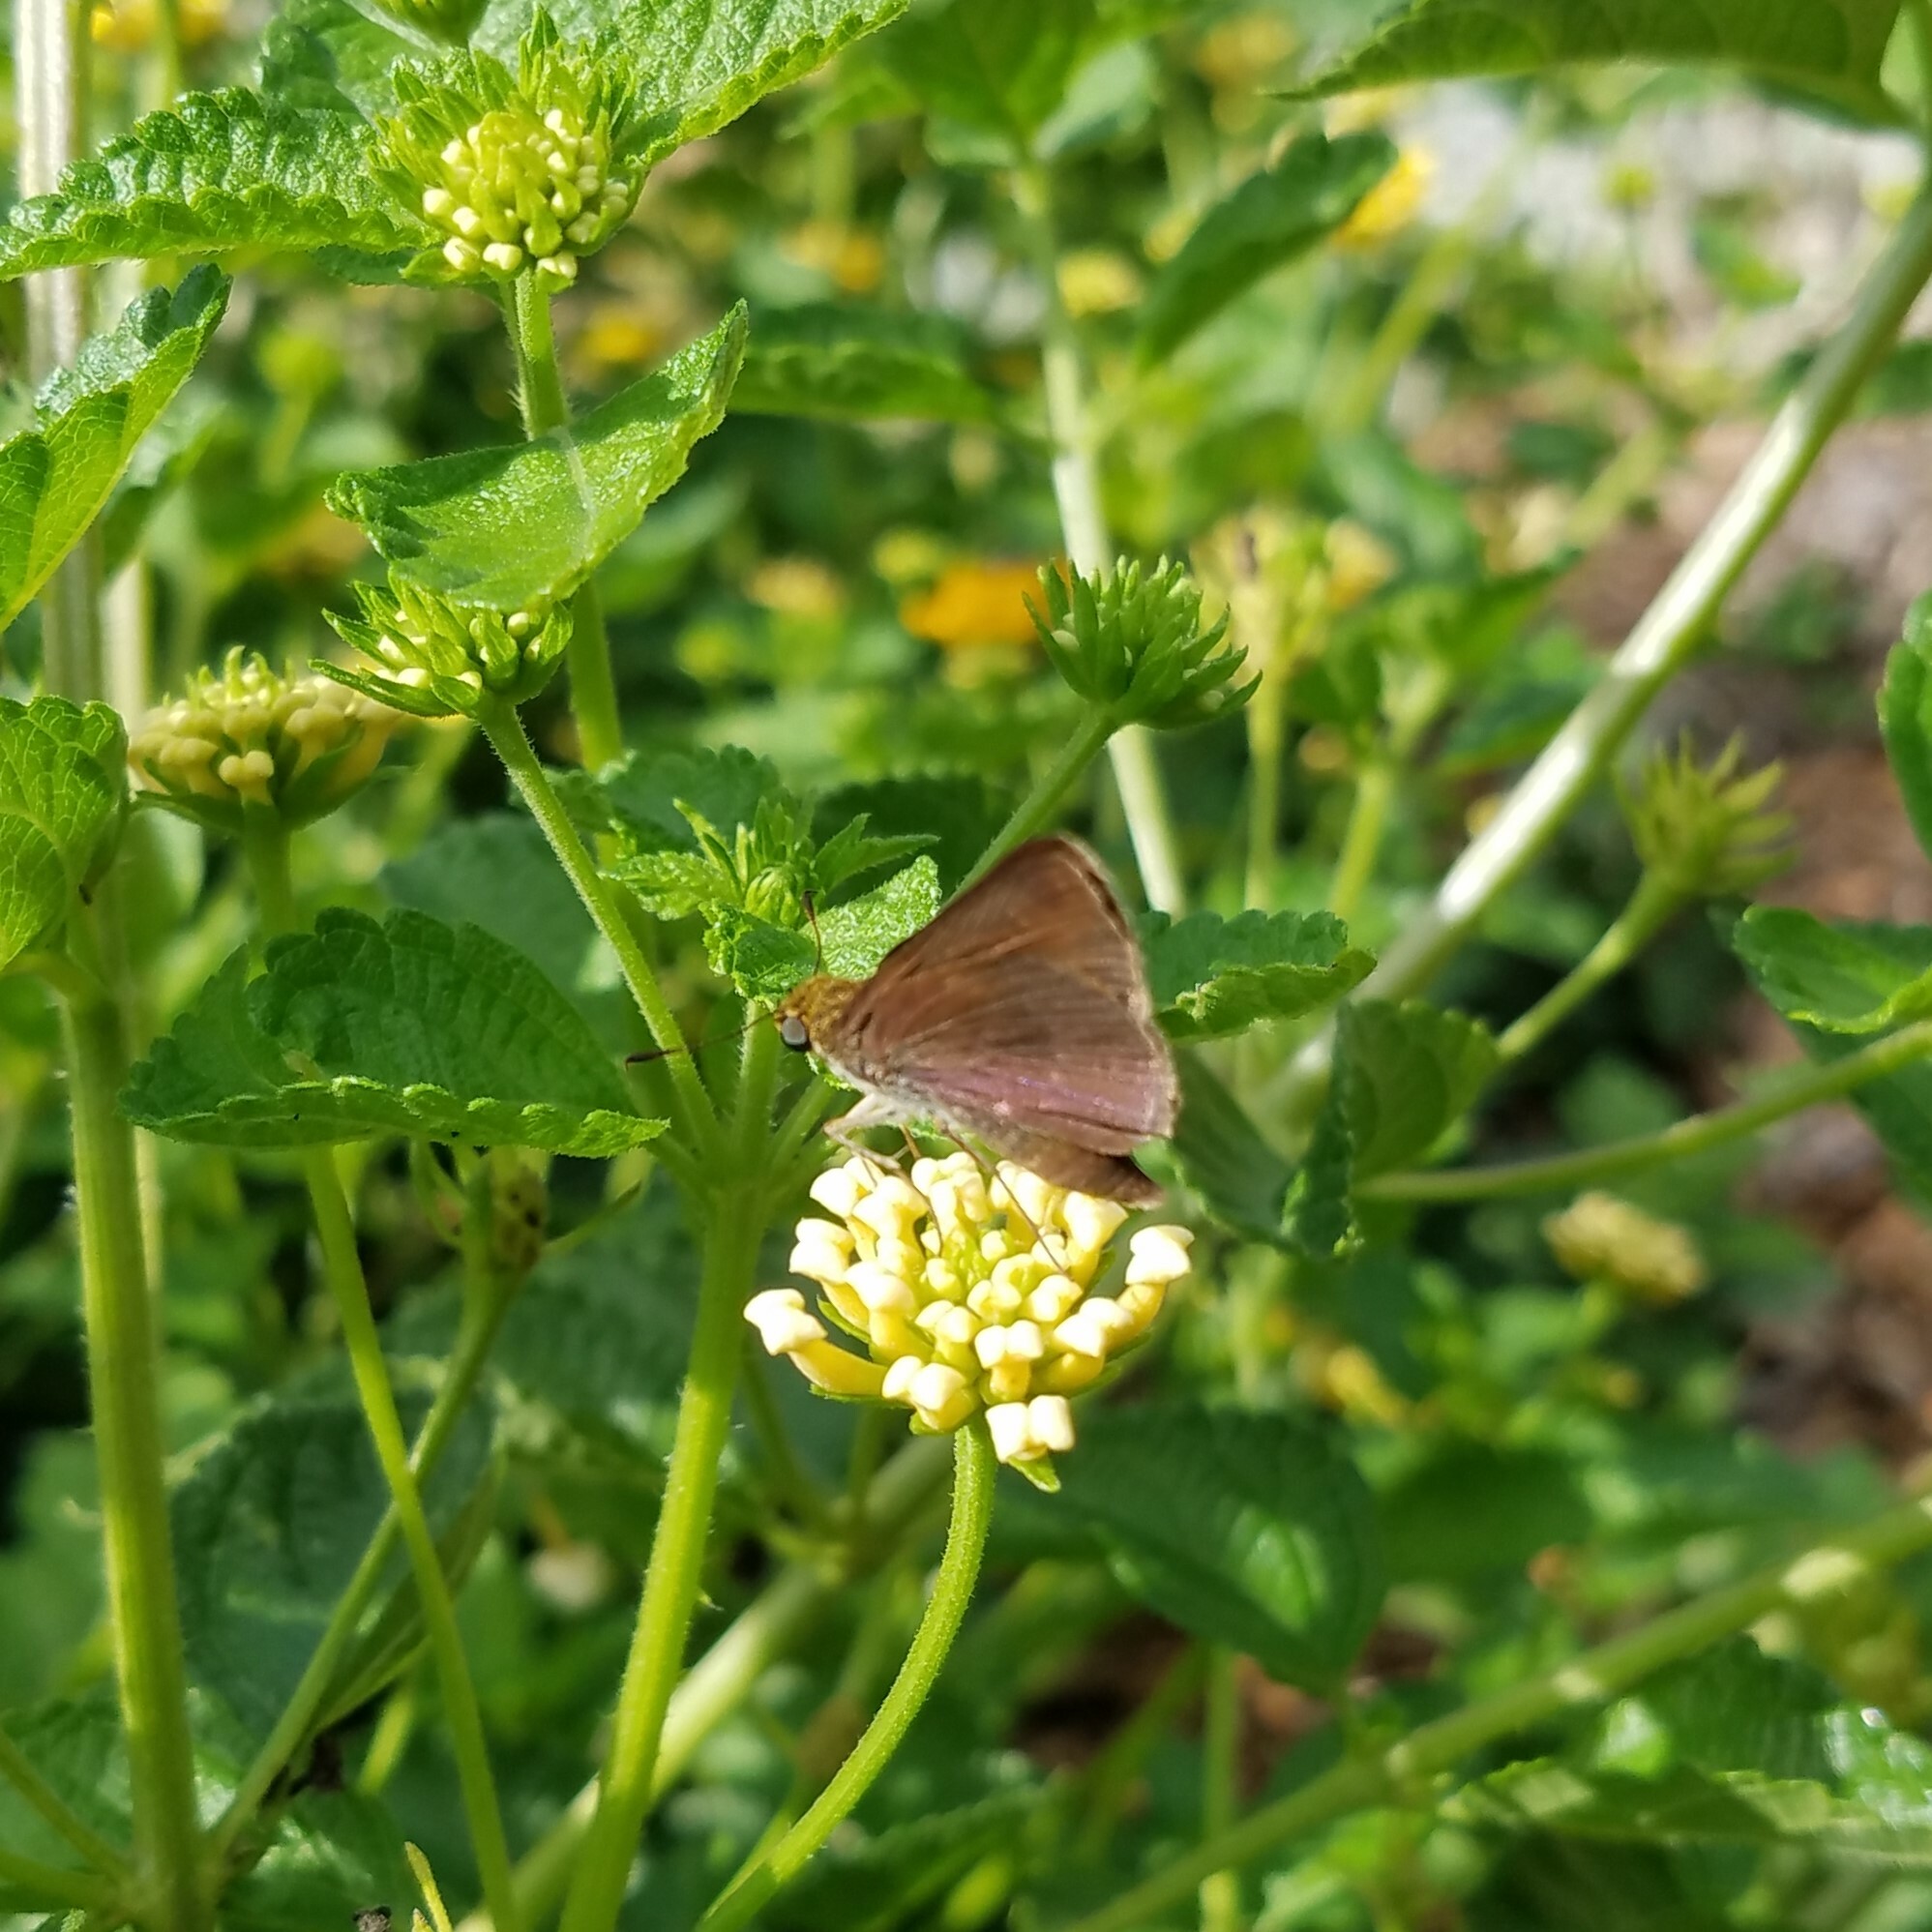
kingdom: Animalia
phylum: Arthropoda
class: Insecta
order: Lepidoptera
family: Hesperiidae
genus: Euphyes
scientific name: Euphyes vestris
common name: Dun skipper
